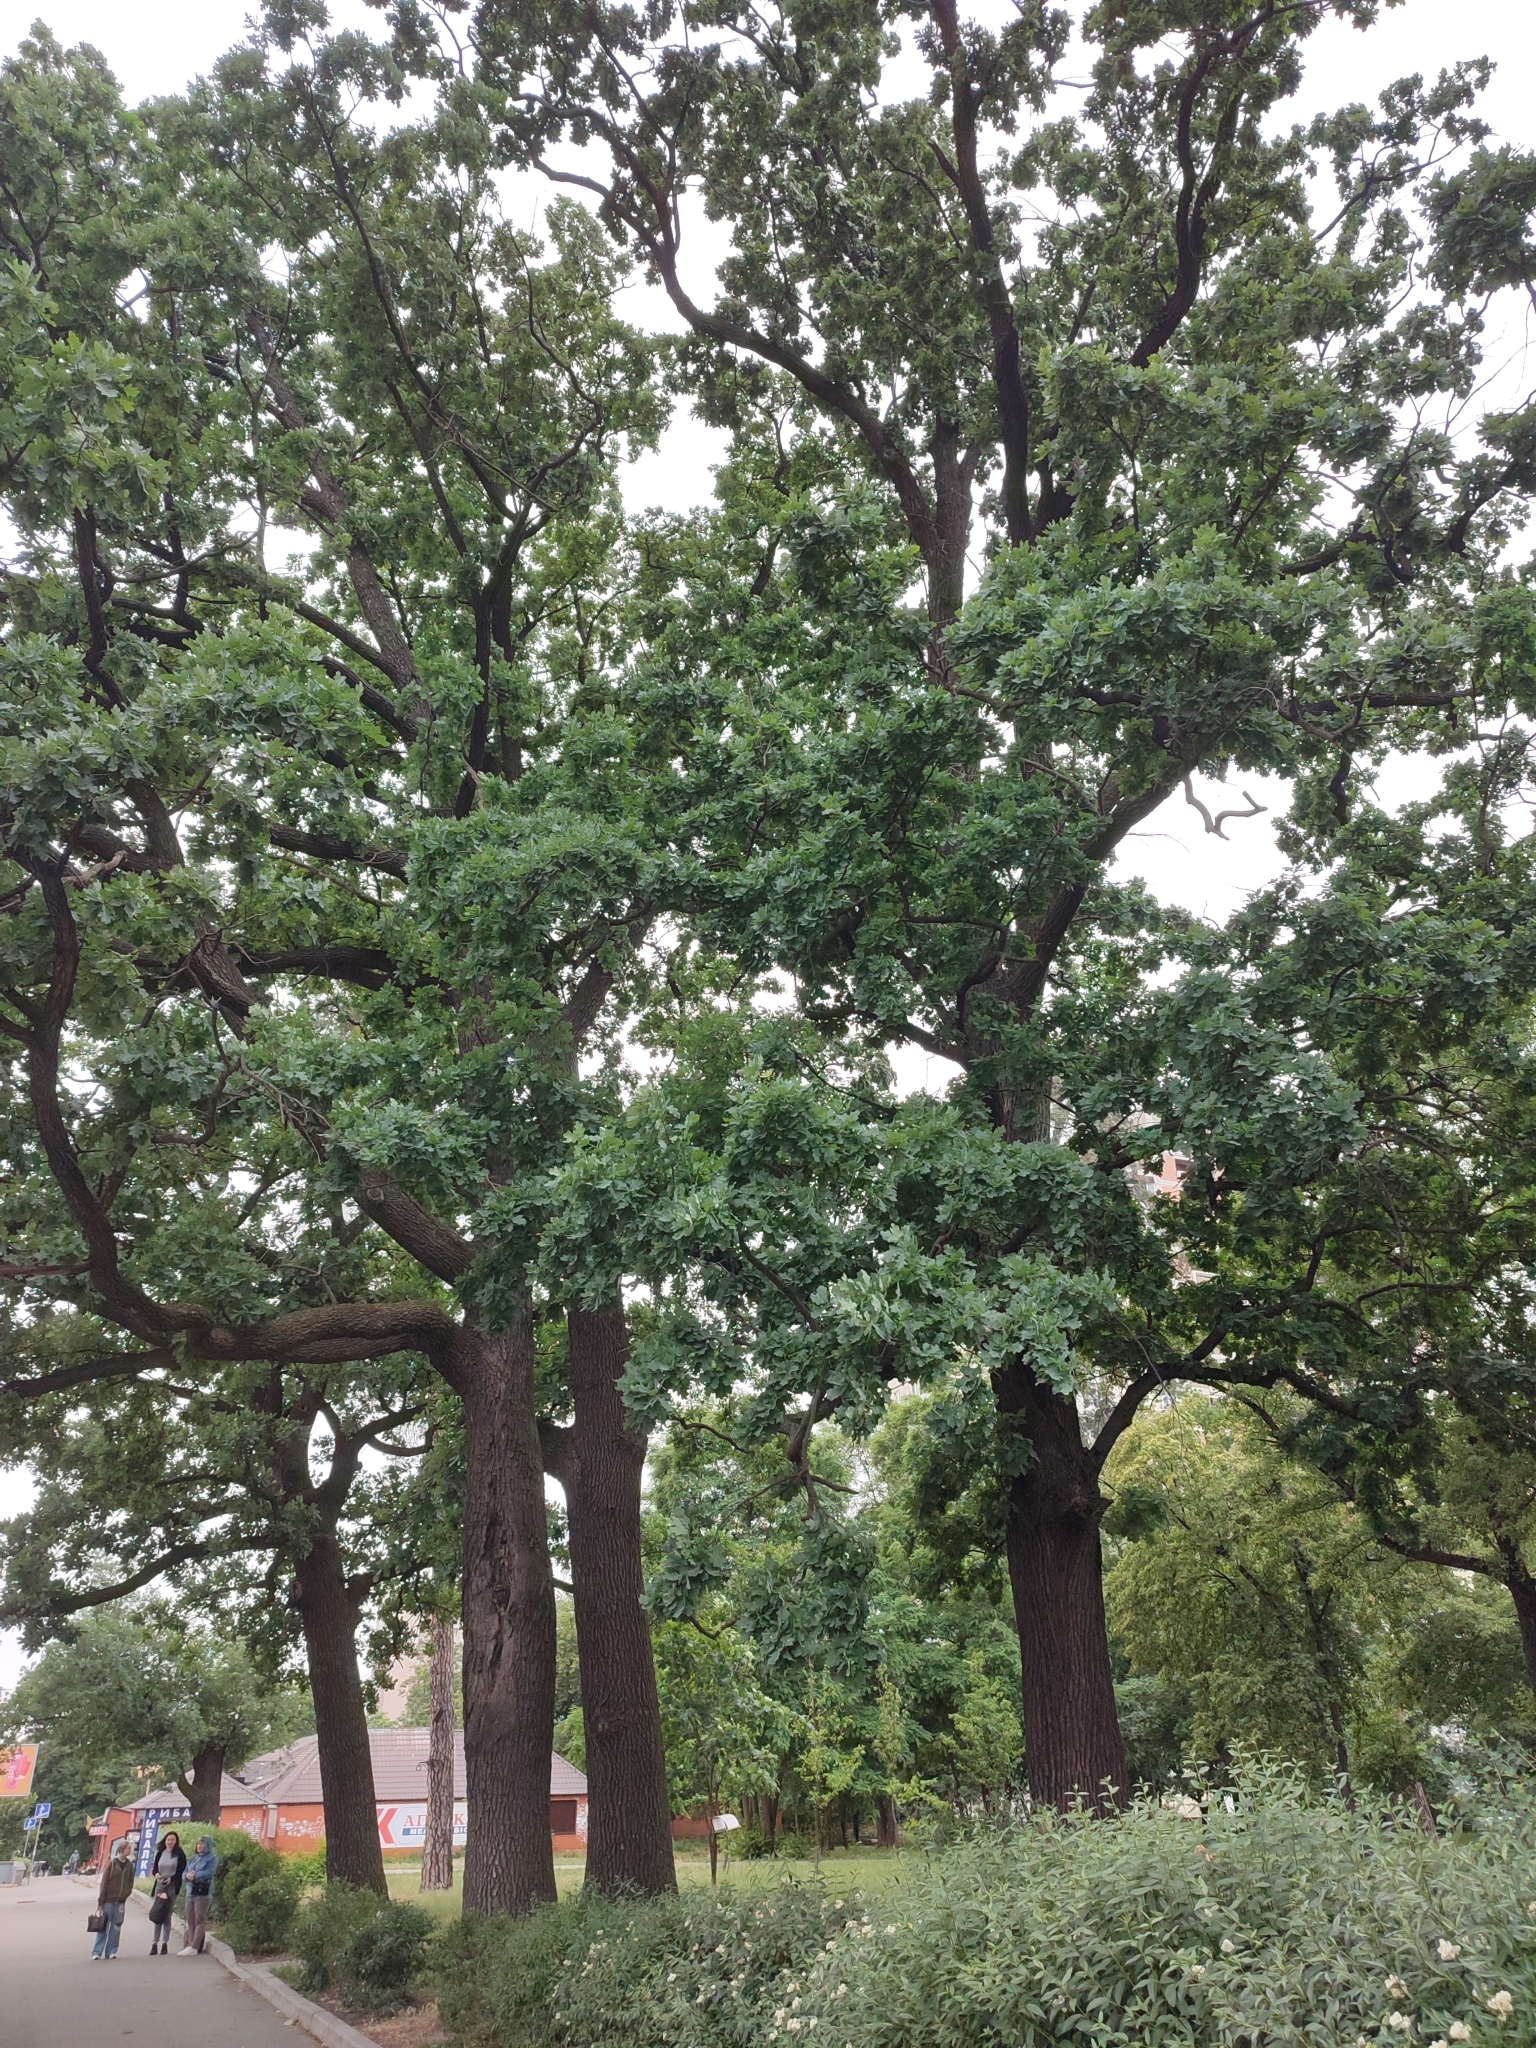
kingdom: Plantae
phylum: Tracheophyta
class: Magnoliopsida
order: Fagales
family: Fagaceae
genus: Quercus
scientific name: Quercus robur
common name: Pedunculate oak
